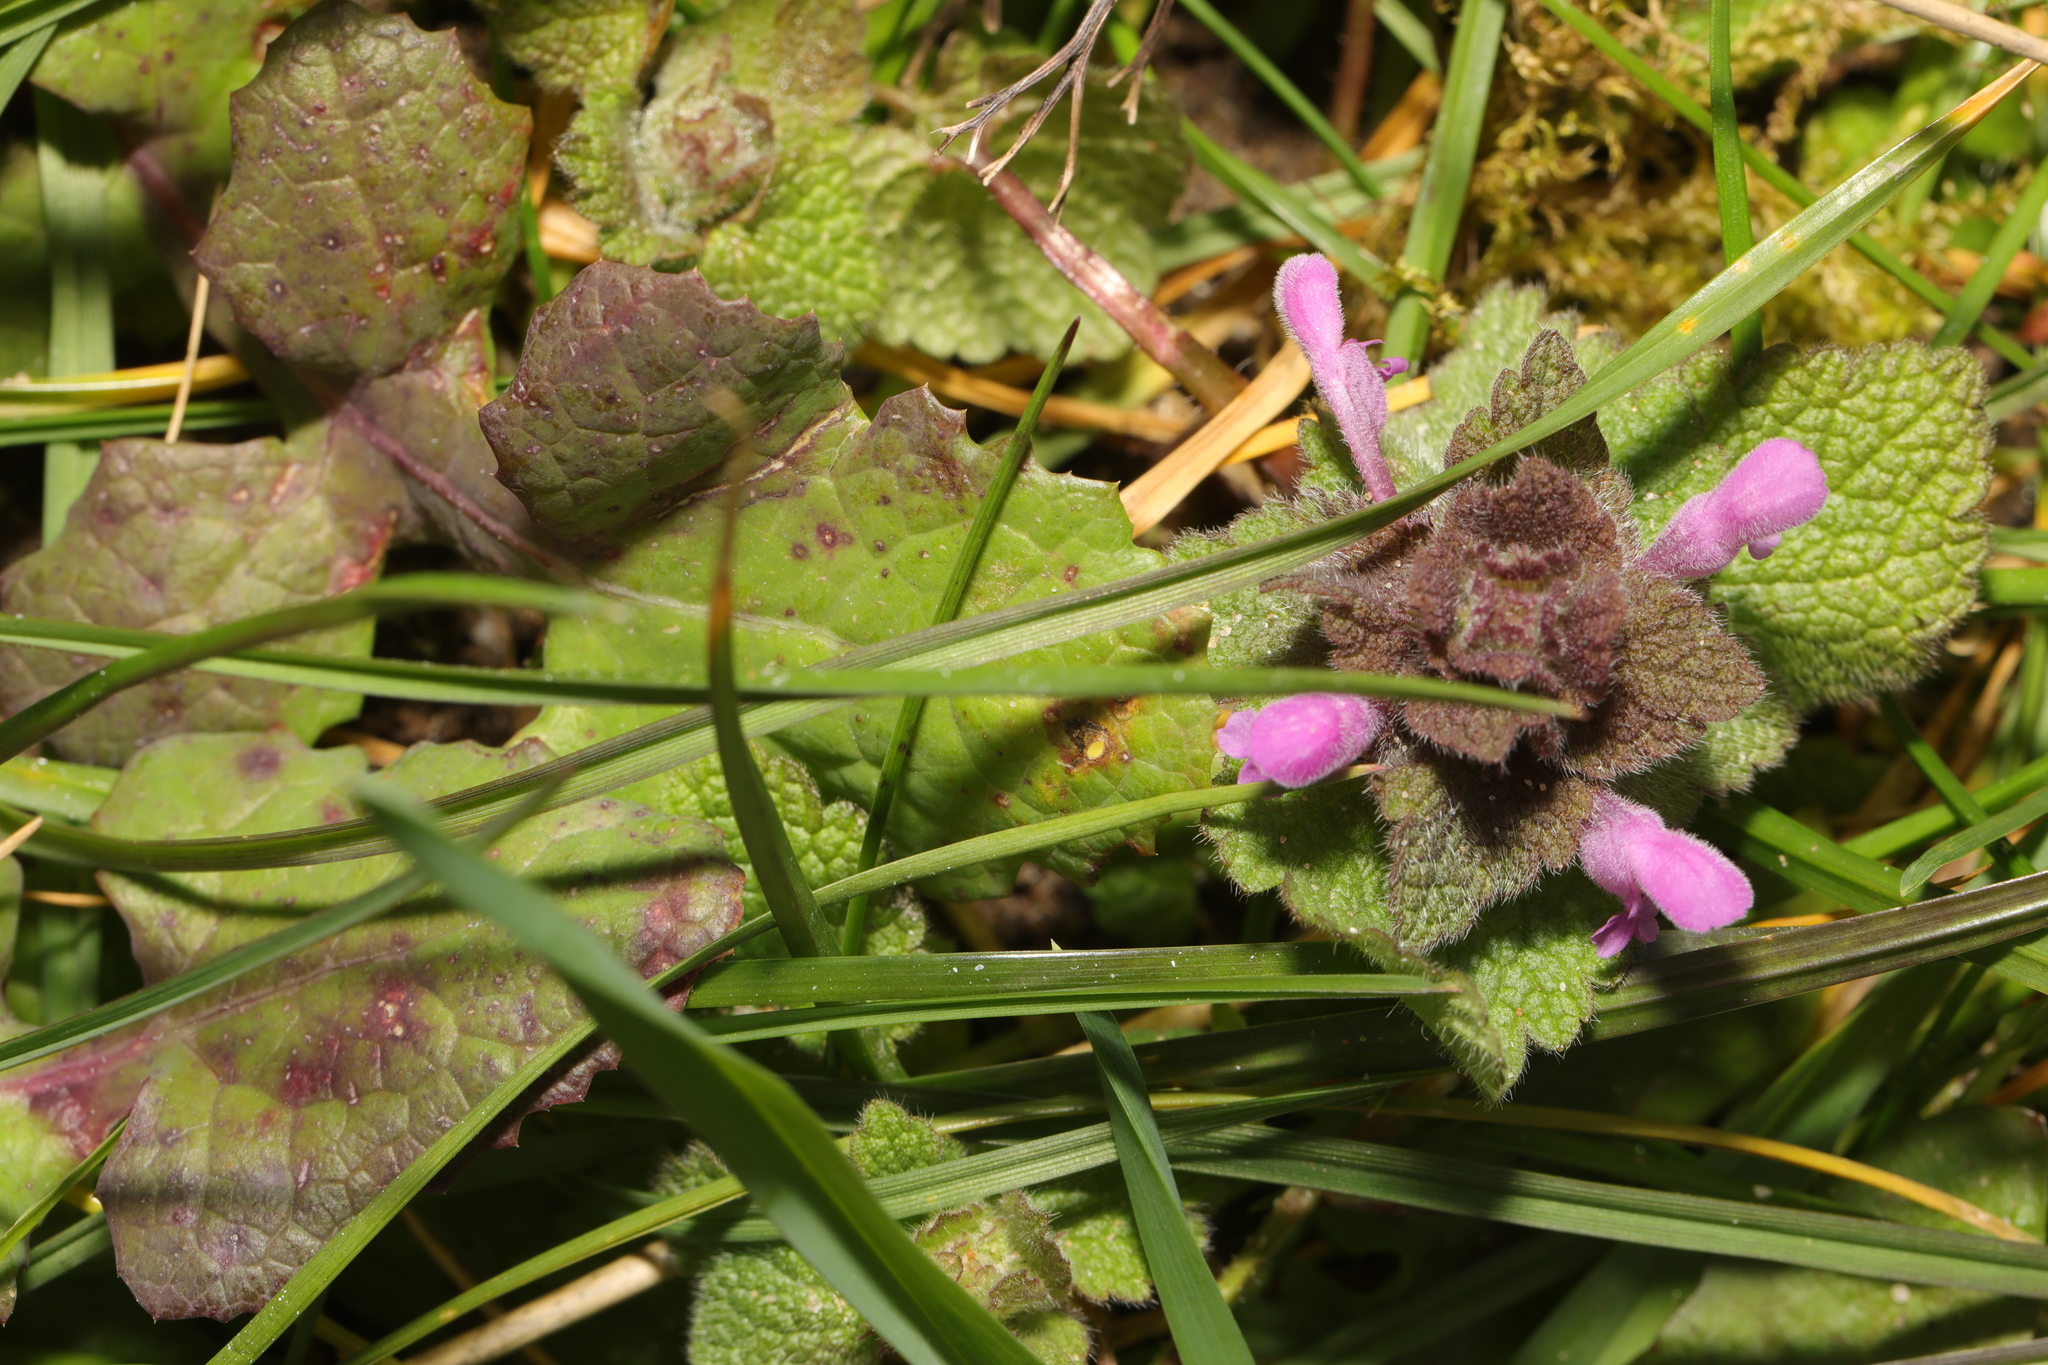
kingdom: Plantae
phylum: Tracheophyta
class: Magnoliopsida
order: Lamiales
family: Lamiaceae
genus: Lamium
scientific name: Lamium purpureum
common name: Red dead-nettle
